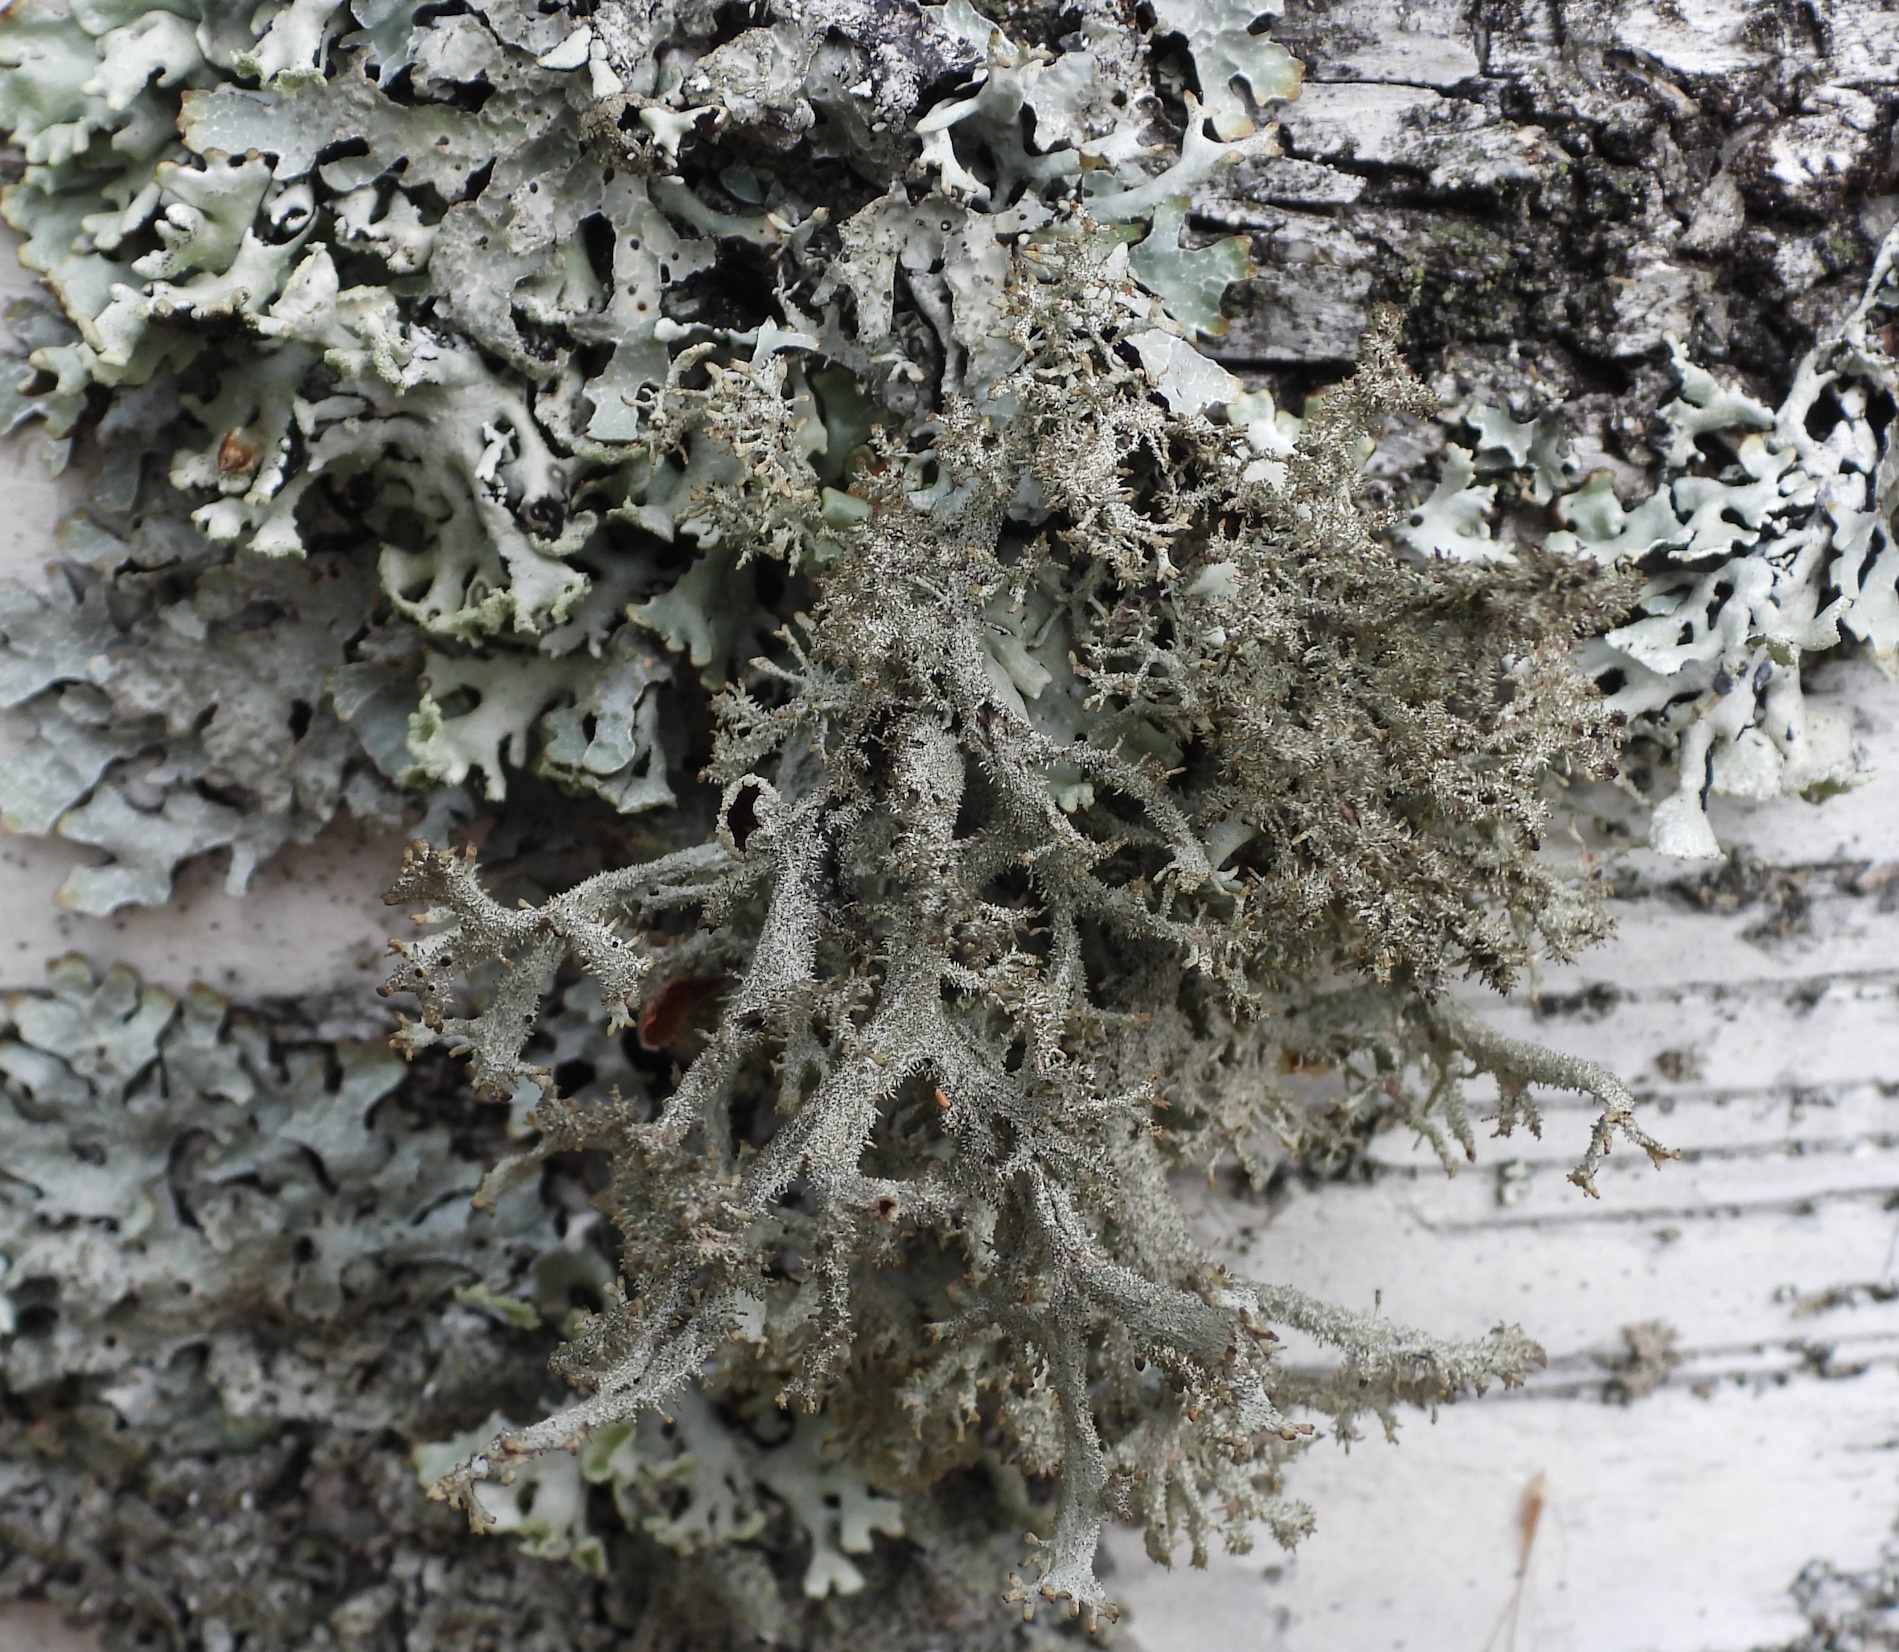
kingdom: Fungi
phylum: Ascomycota
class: Lecanoromycetes
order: Lecanorales
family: Parmeliaceae
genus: Pseudevernia
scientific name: Pseudevernia furfuracea
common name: Tree moss
